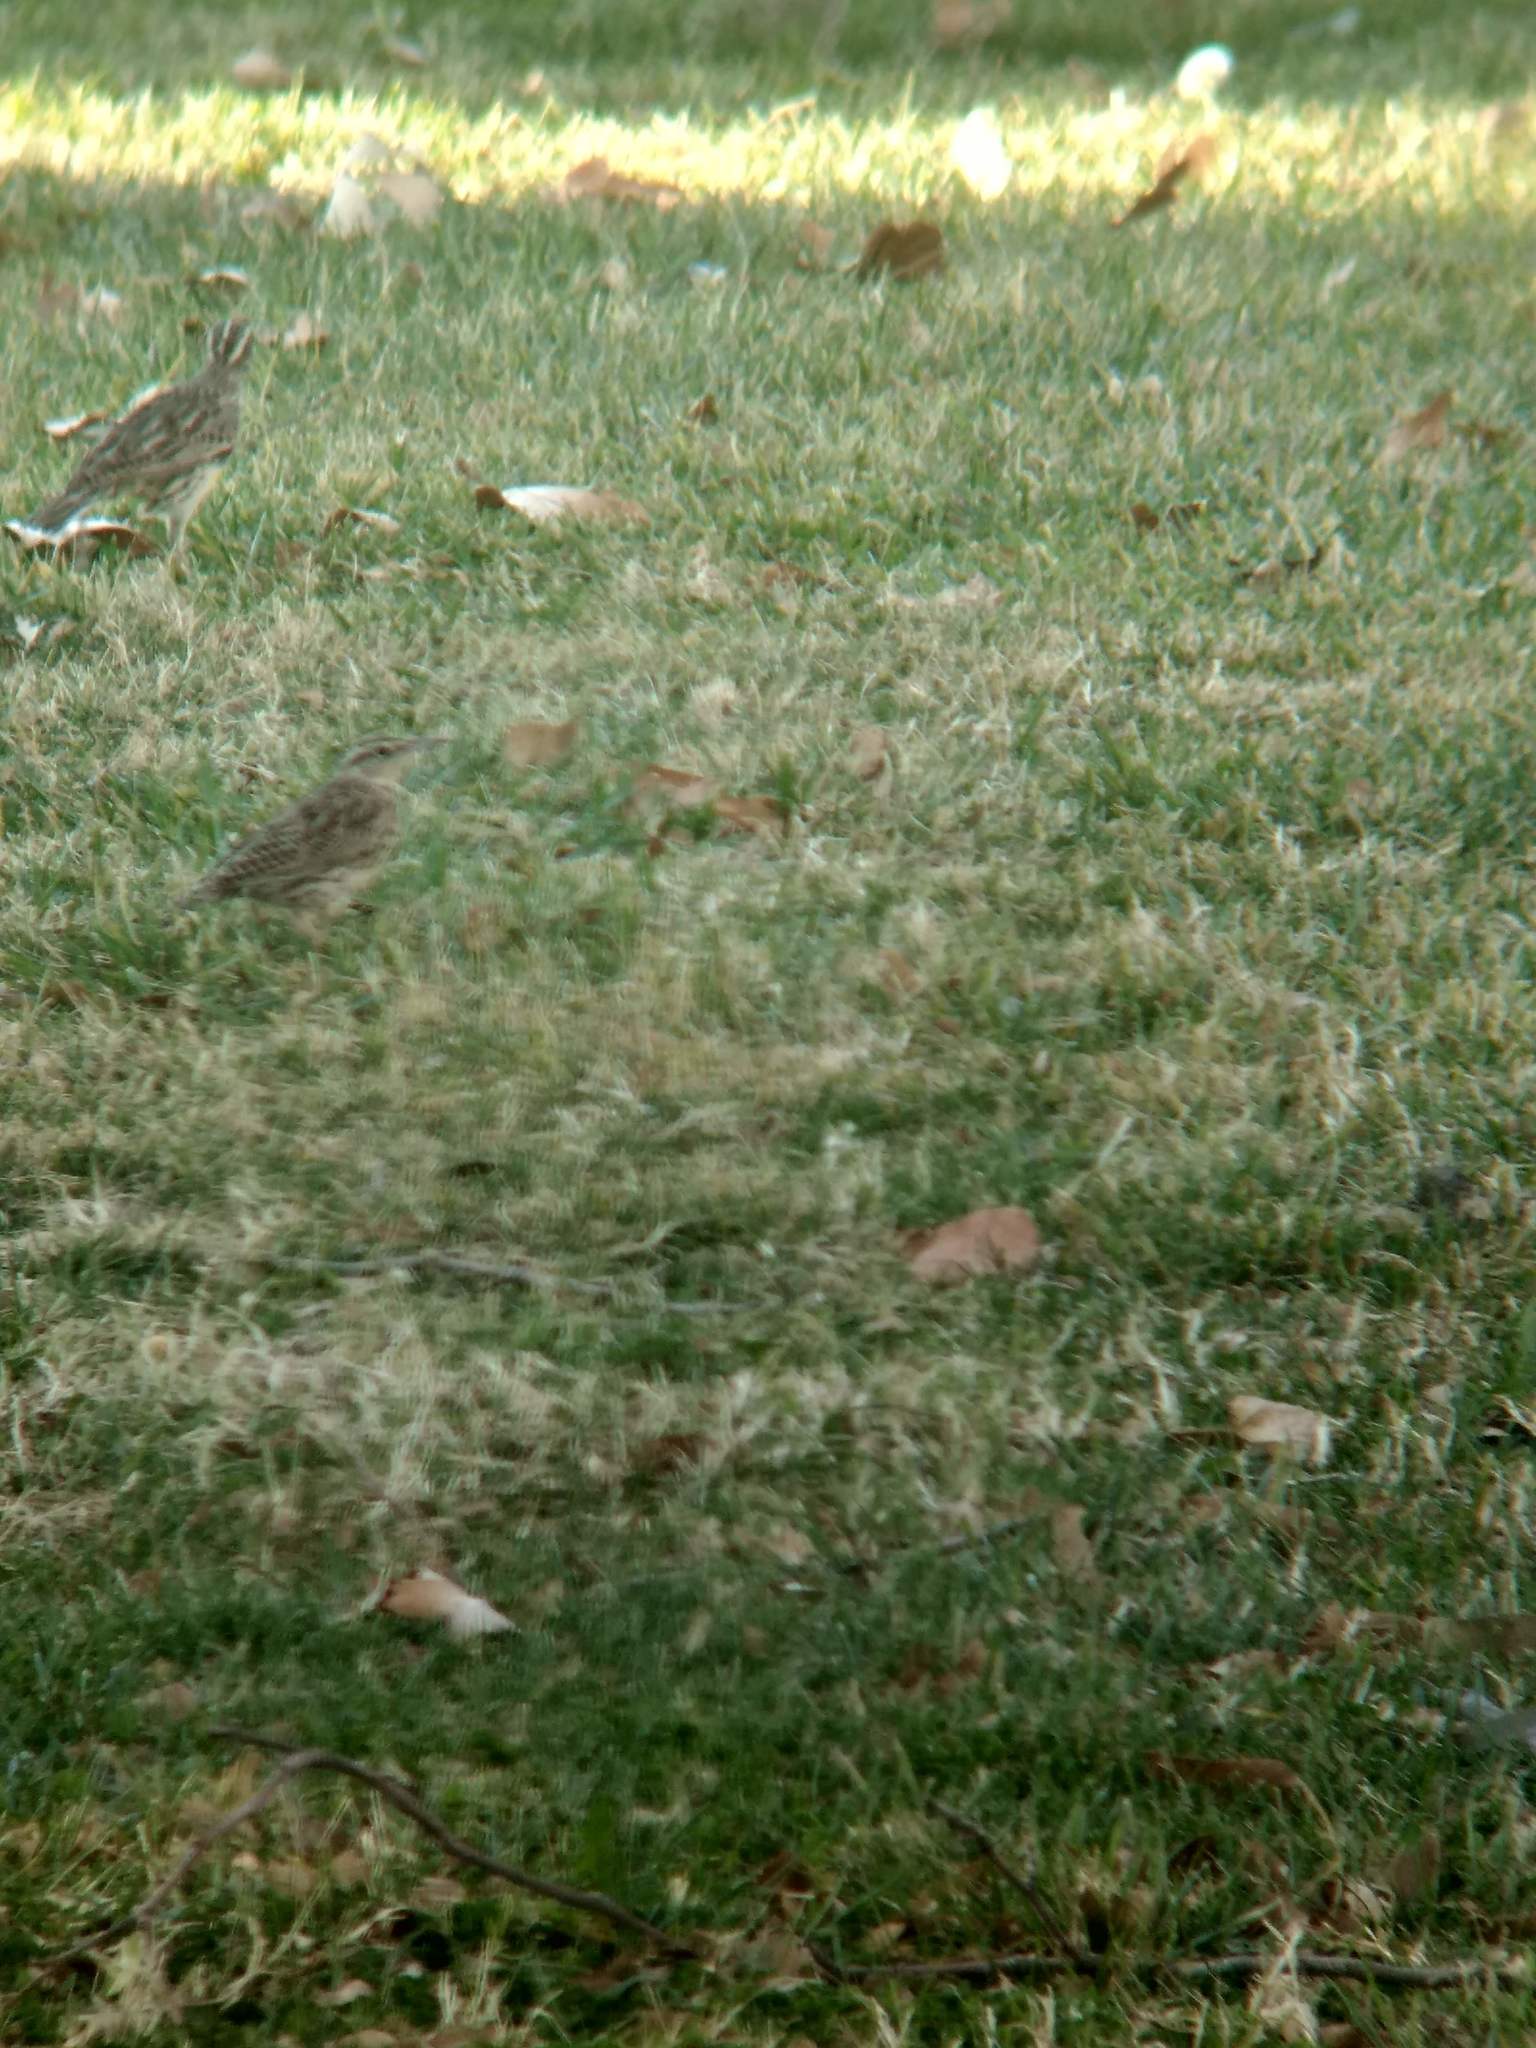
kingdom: Animalia
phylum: Chordata
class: Aves
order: Passeriformes
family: Icteridae
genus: Sturnella
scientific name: Sturnella neglecta
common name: Western meadowlark
